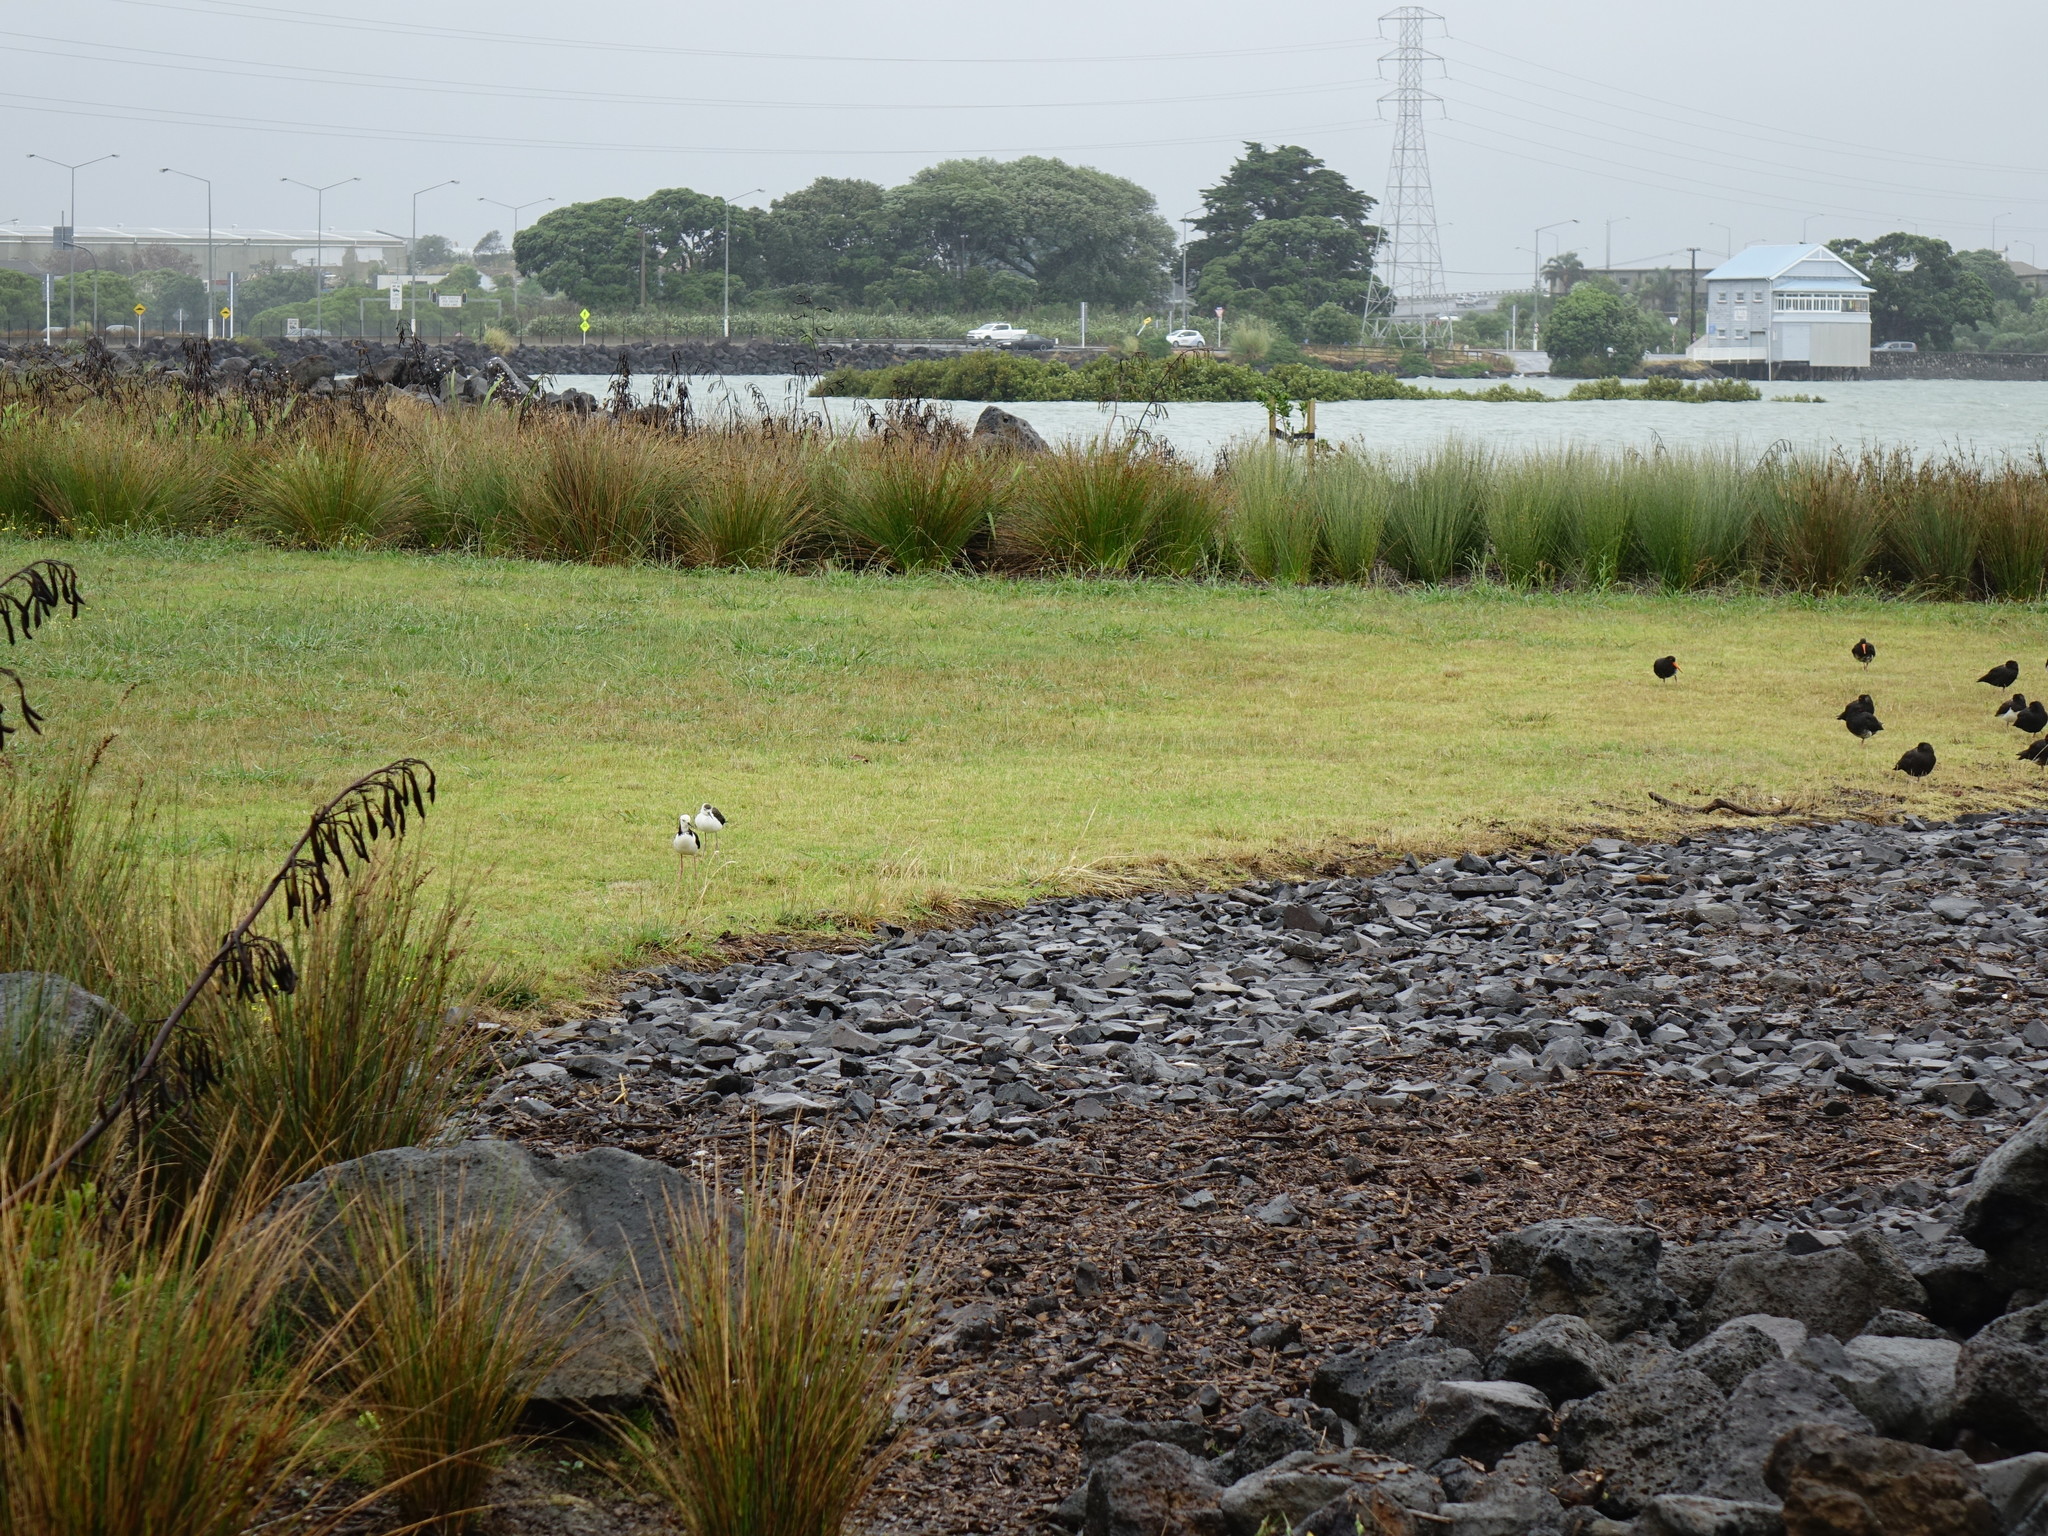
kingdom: Animalia
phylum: Chordata
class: Aves
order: Charadriiformes
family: Recurvirostridae
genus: Himantopus
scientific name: Himantopus leucocephalus
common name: White-headed stilt
